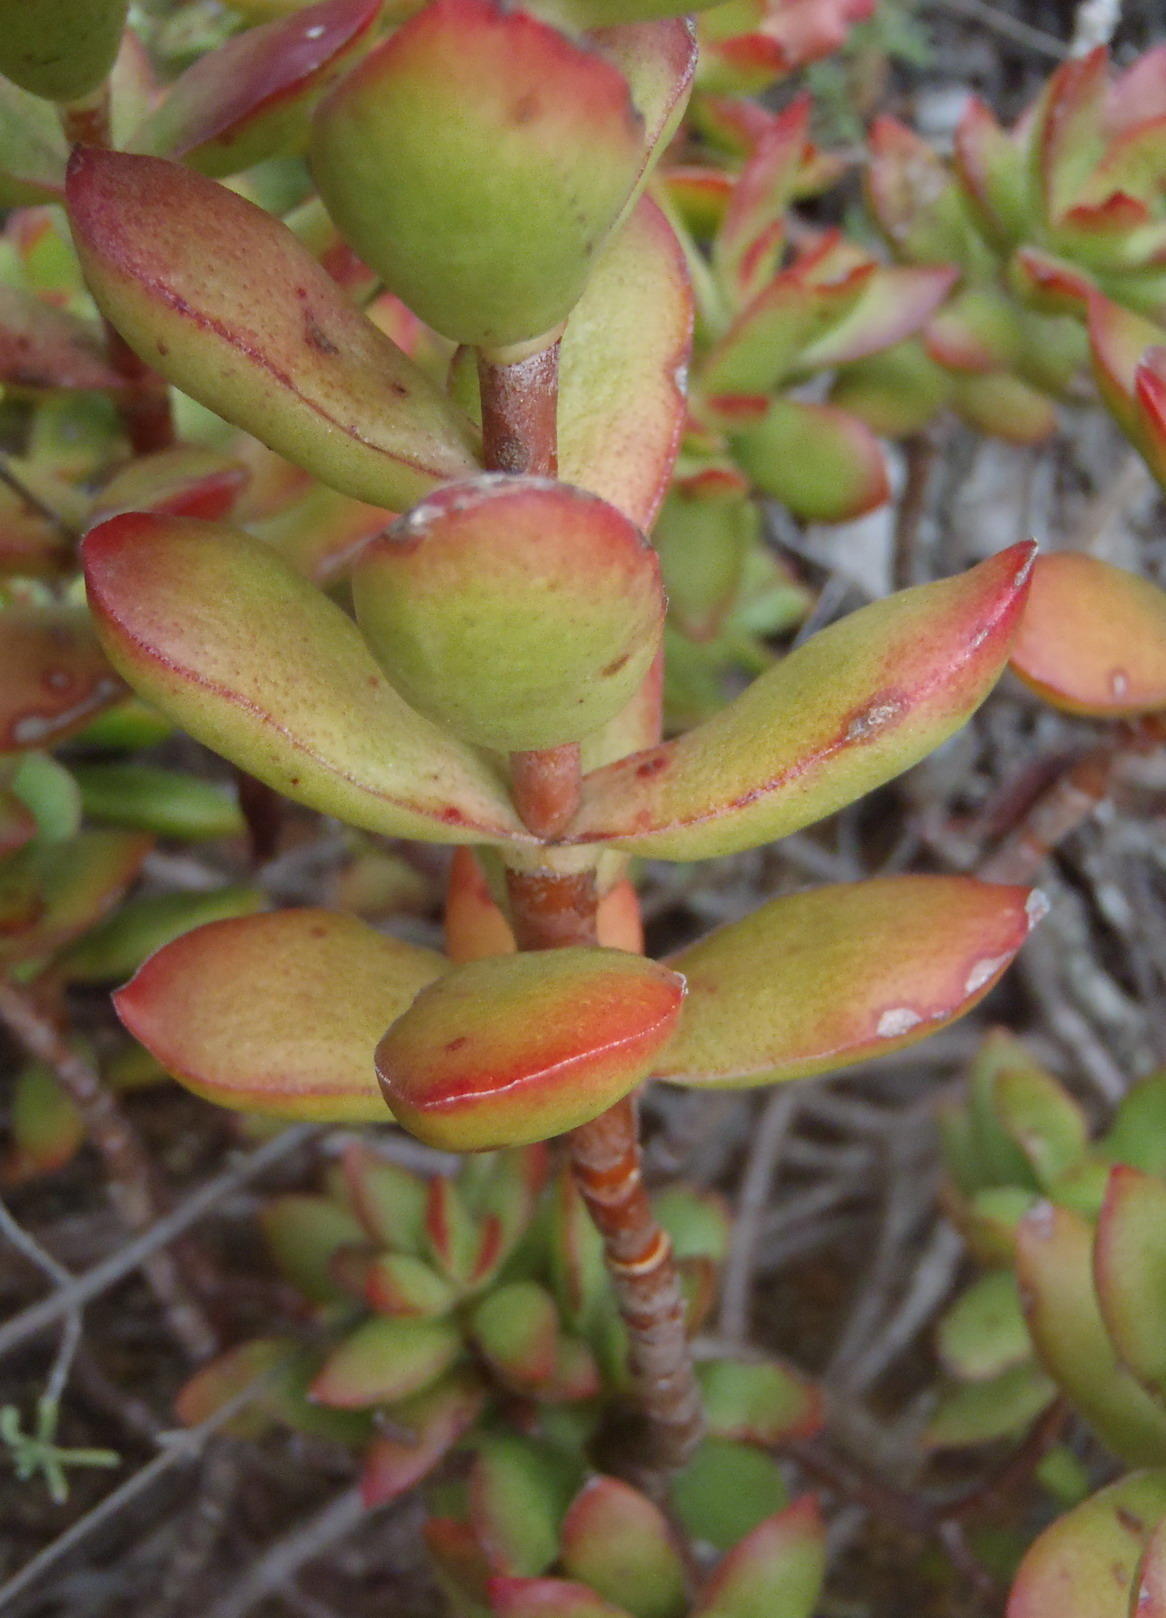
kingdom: Plantae
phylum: Tracheophyta
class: Magnoliopsida
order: Saxifragales
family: Crassulaceae
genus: Crassula
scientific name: Crassula rubricaulis
